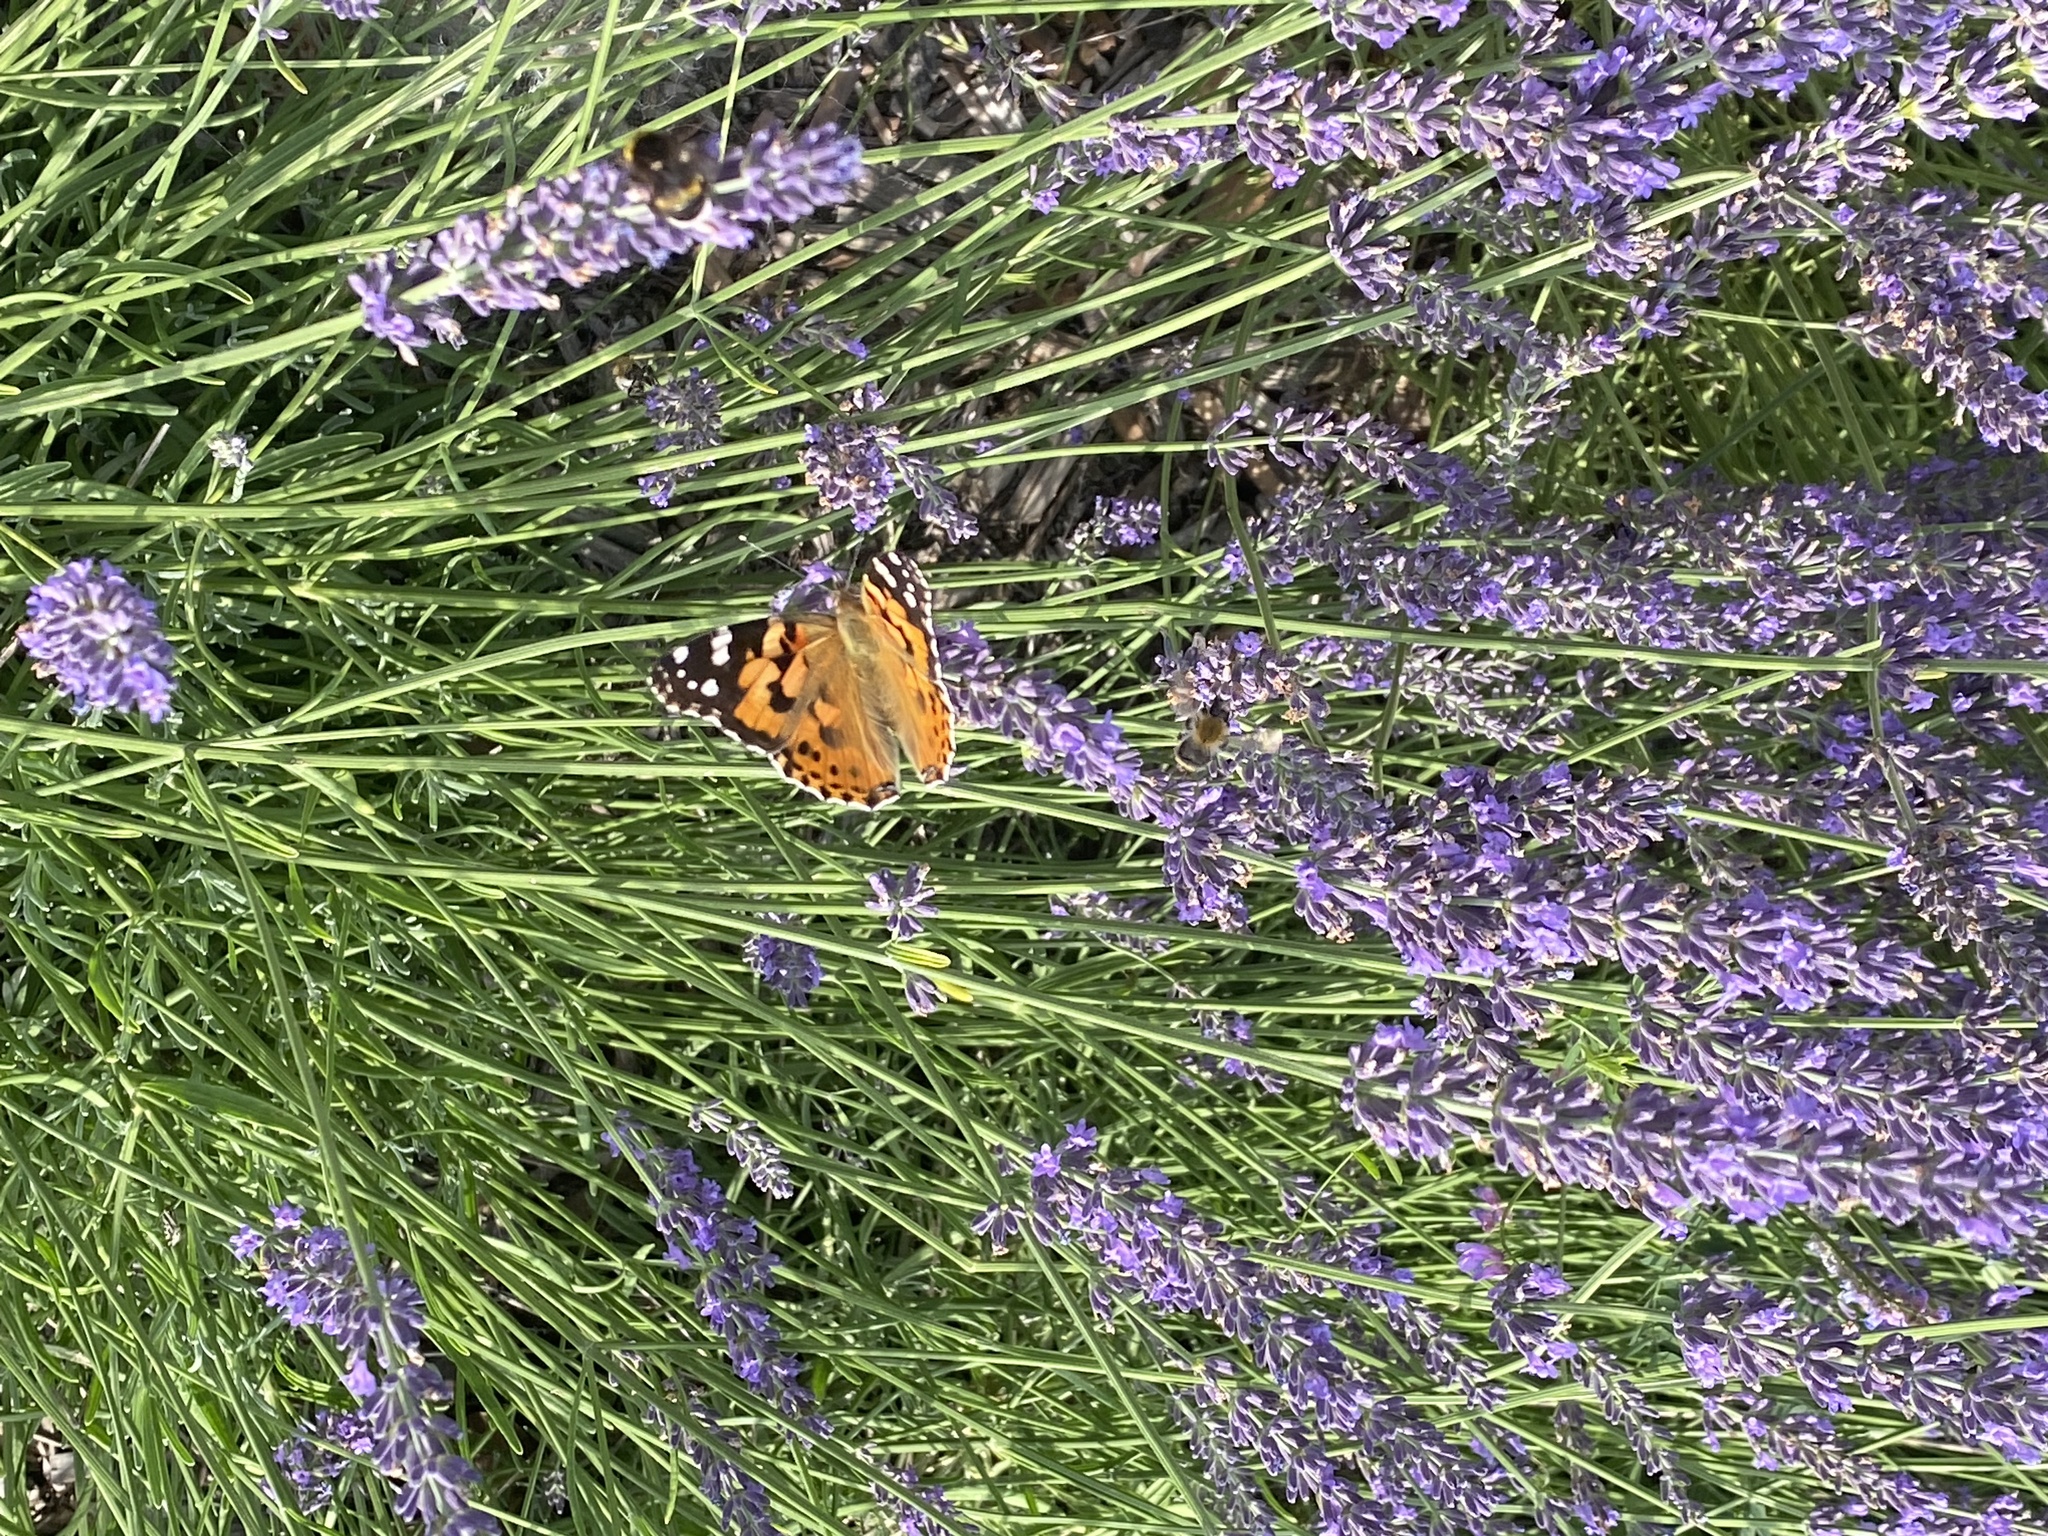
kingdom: Animalia
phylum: Arthropoda
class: Insecta
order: Lepidoptera
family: Nymphalidae
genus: Vanessa
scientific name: Vanessa cardui
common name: Painted lady
